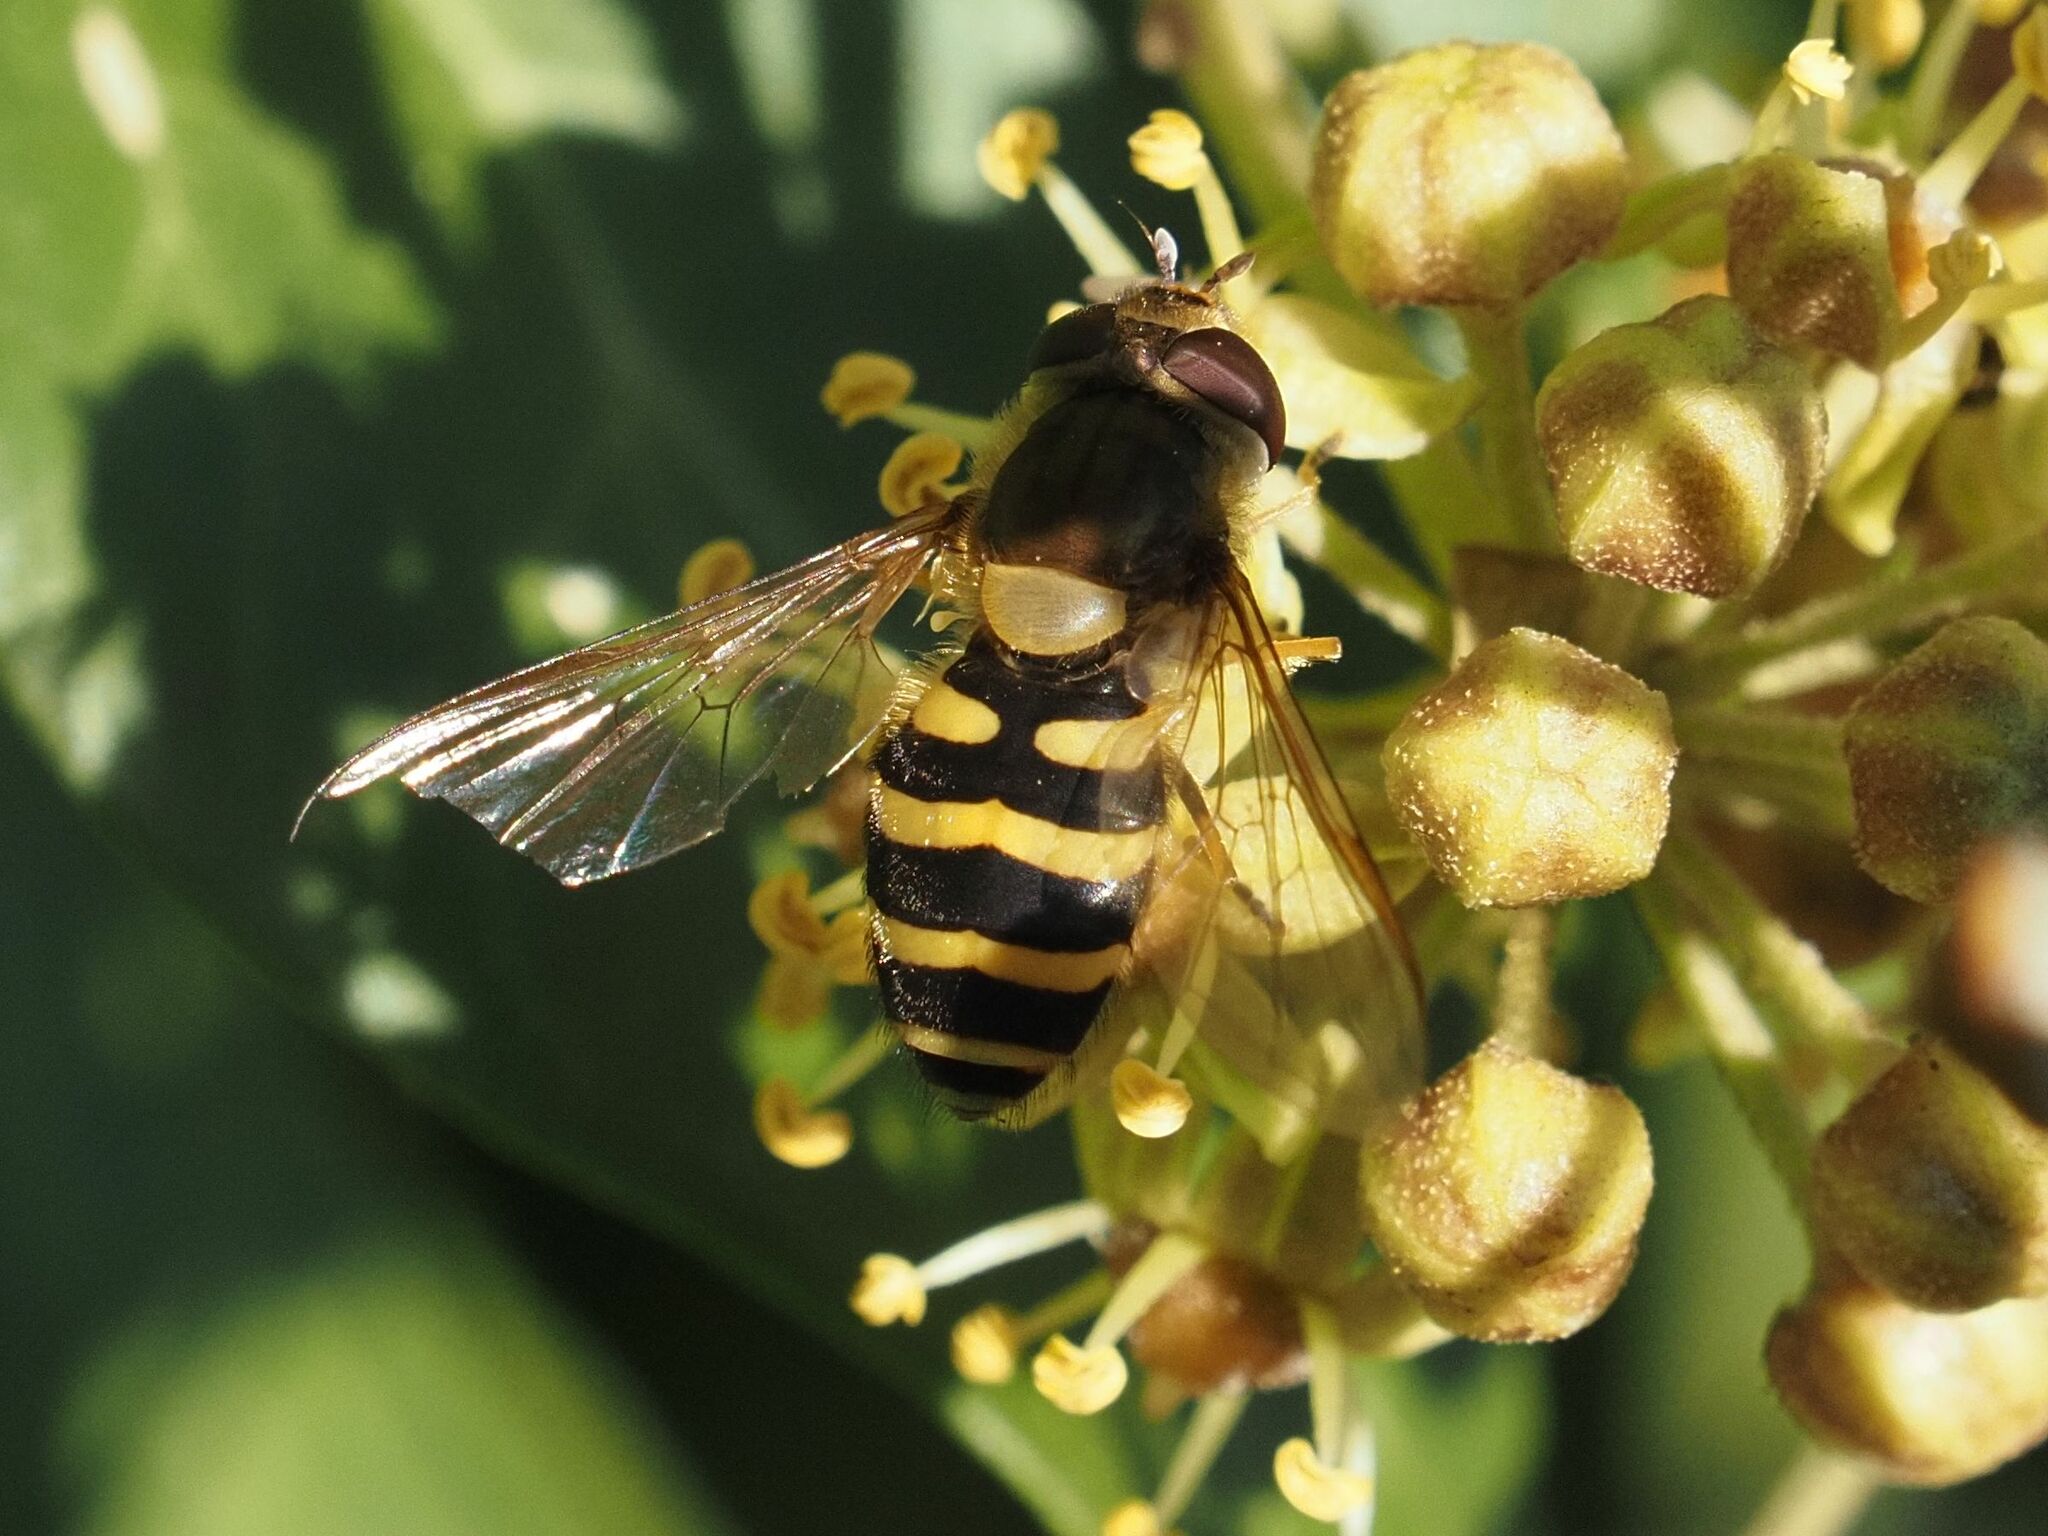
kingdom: Animalia
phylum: Arthropoda
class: Insecta
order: Diptera
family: Syrphidae
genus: Syrphus
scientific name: Syrphus torvus
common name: Hairy-eyed flower fly
